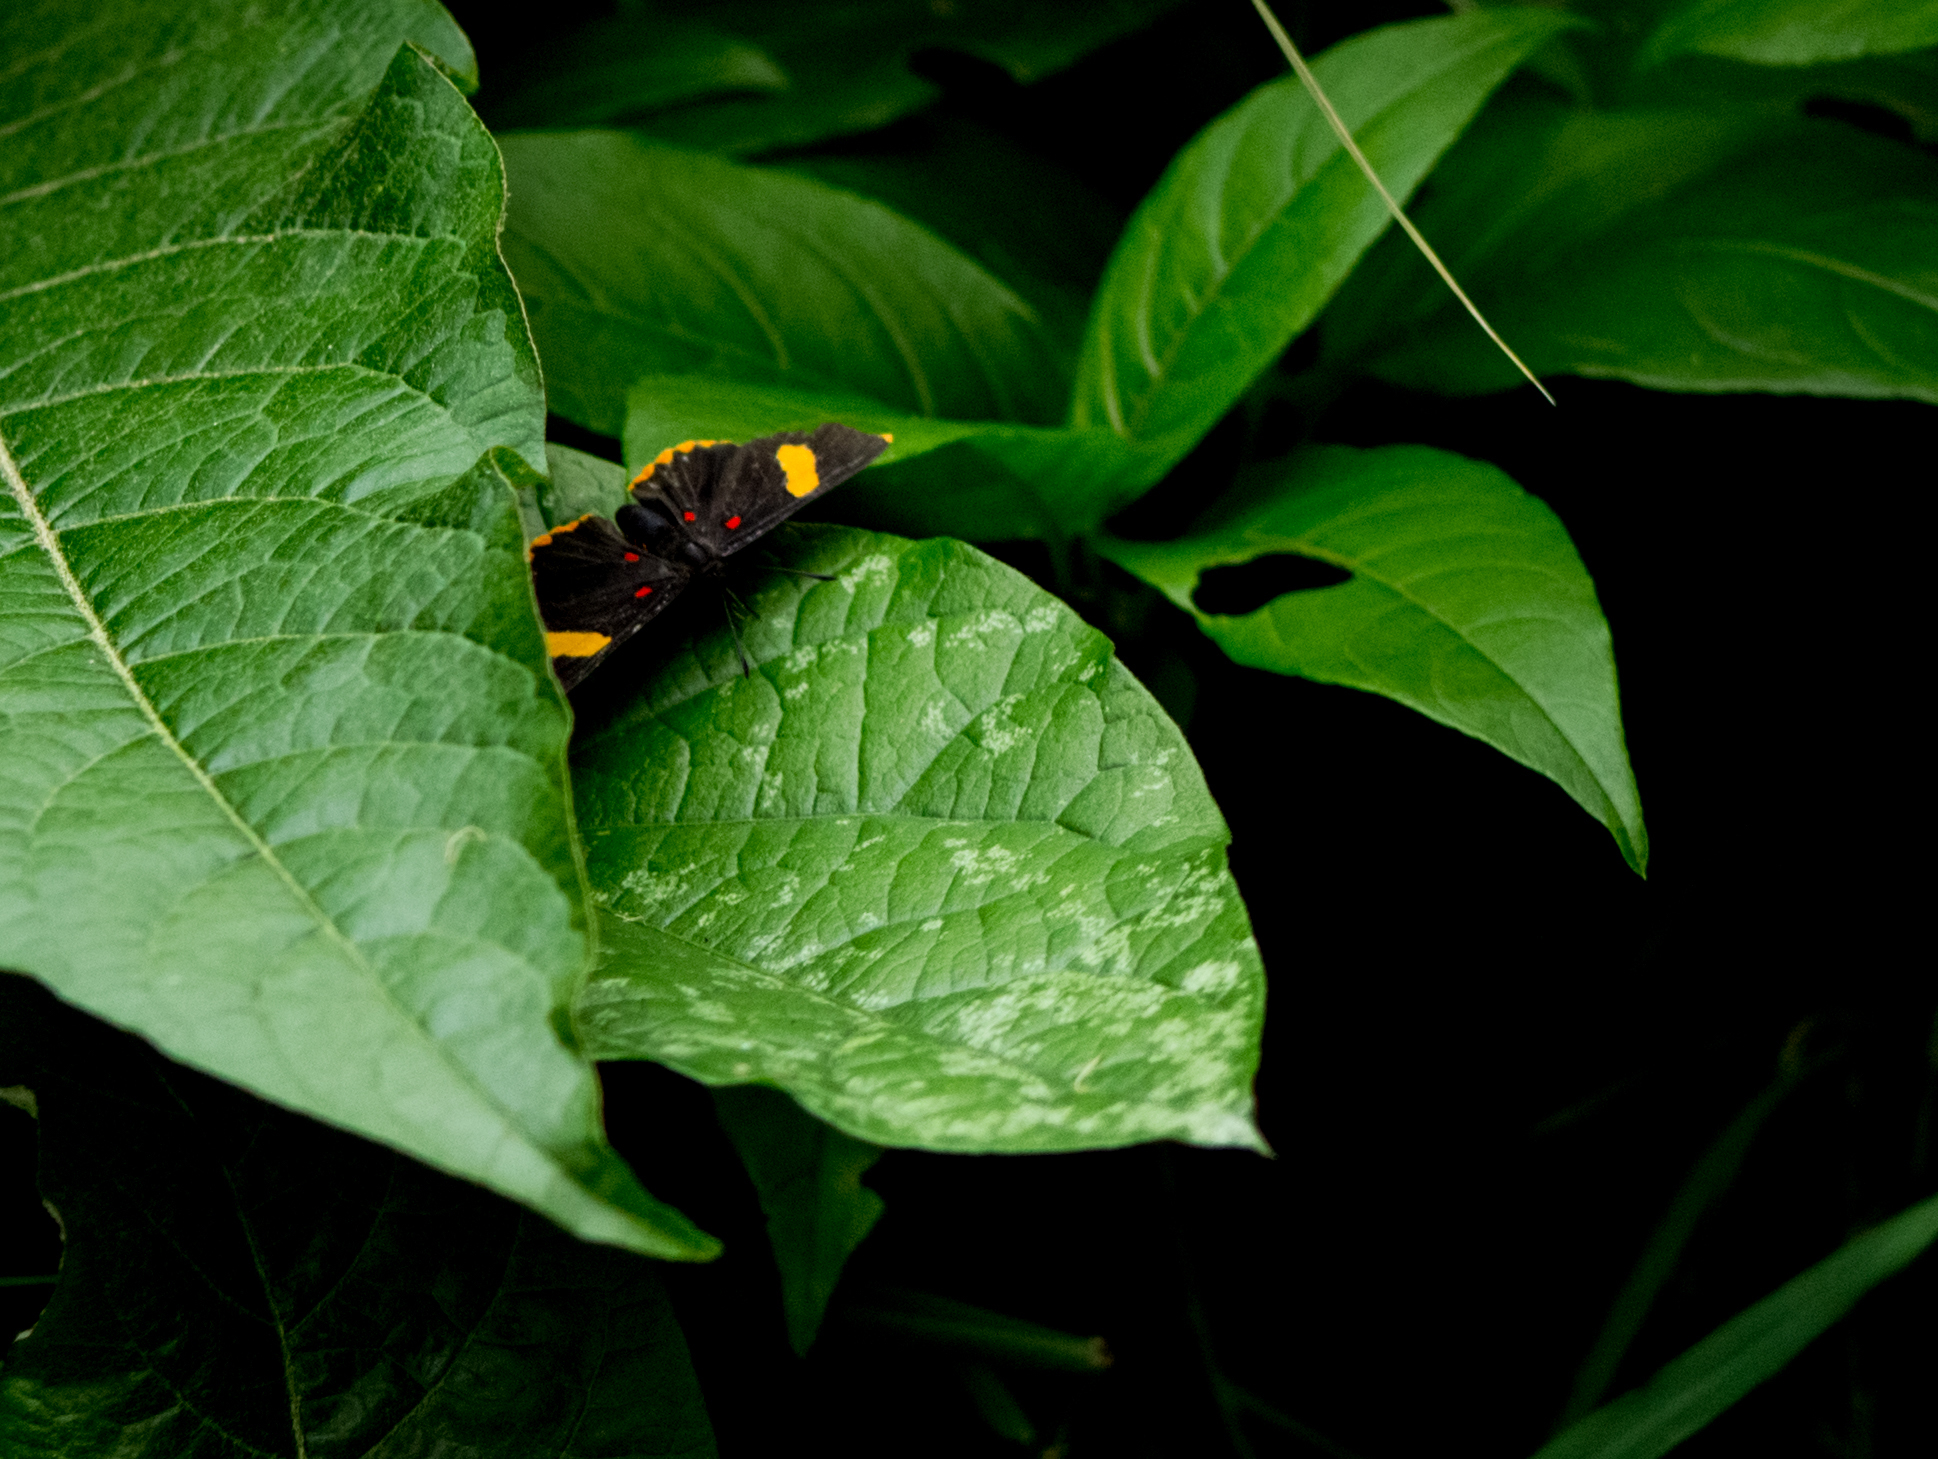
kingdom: Animalia
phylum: Arthropoda
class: Insecta
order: Lepidoptera
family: Lycaenidae
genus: Melanis
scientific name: Melanis electron
